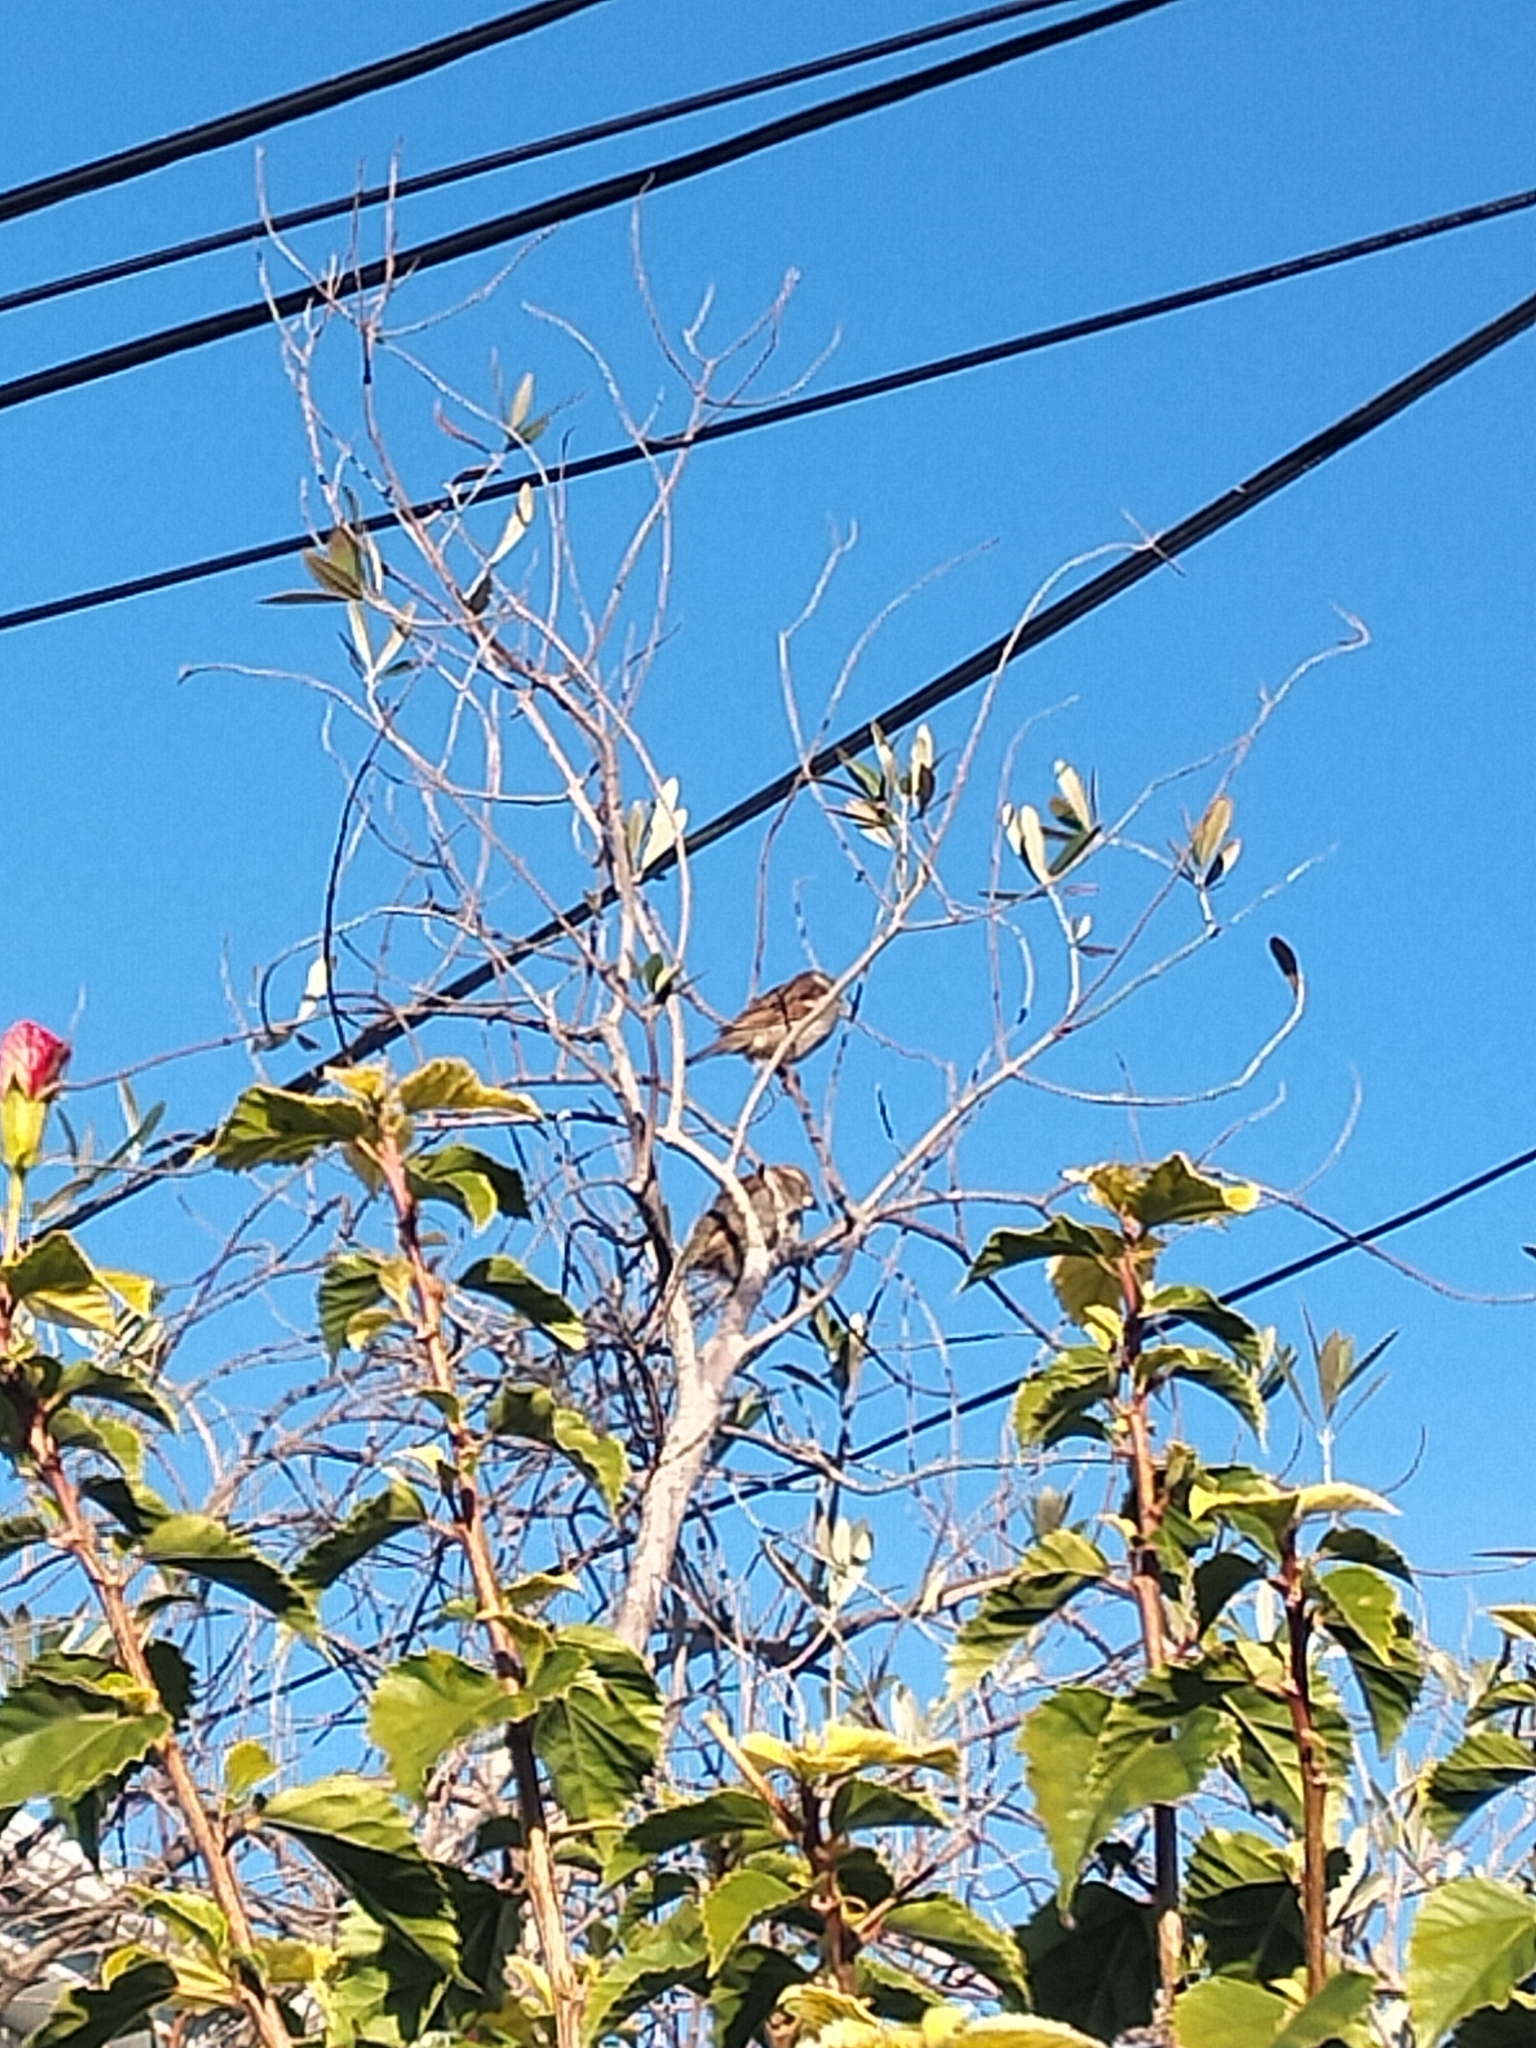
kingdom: Animalia
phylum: Chordata
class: Aves
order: Passeriformes
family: Passeridae
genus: Passer
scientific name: Passer domesticus
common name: House sparrow
